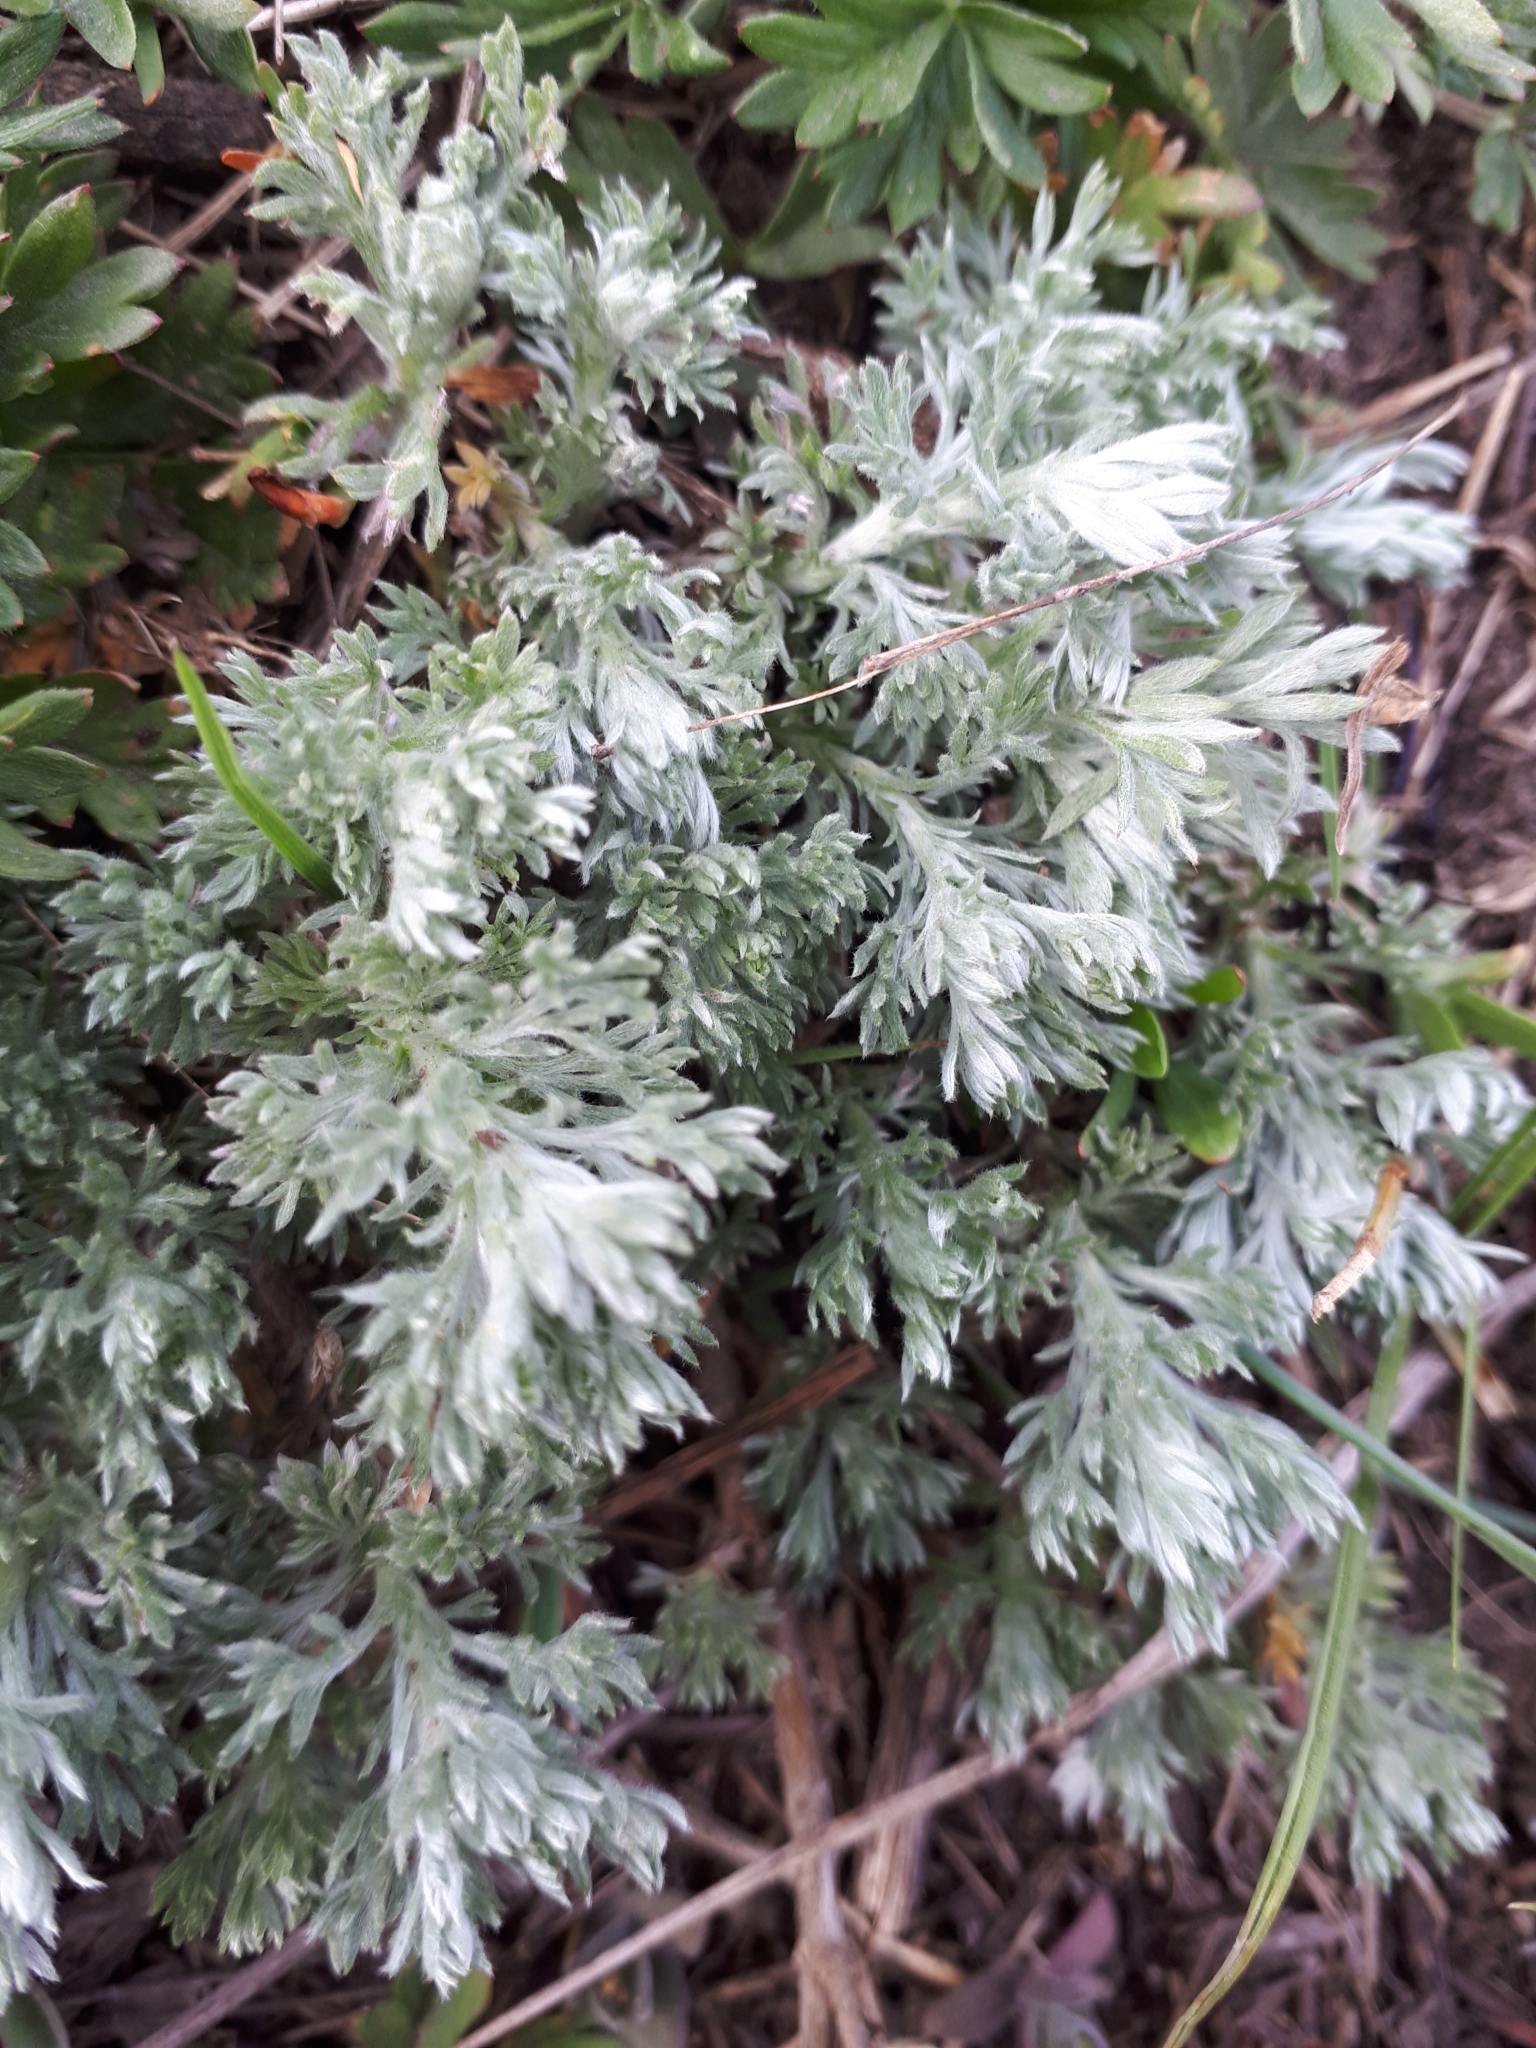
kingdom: Plantae
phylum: Tracheophyta
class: Magnoliopsida
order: Asterales
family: Asteraceae
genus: Artemisia
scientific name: Artemisia austriaca
